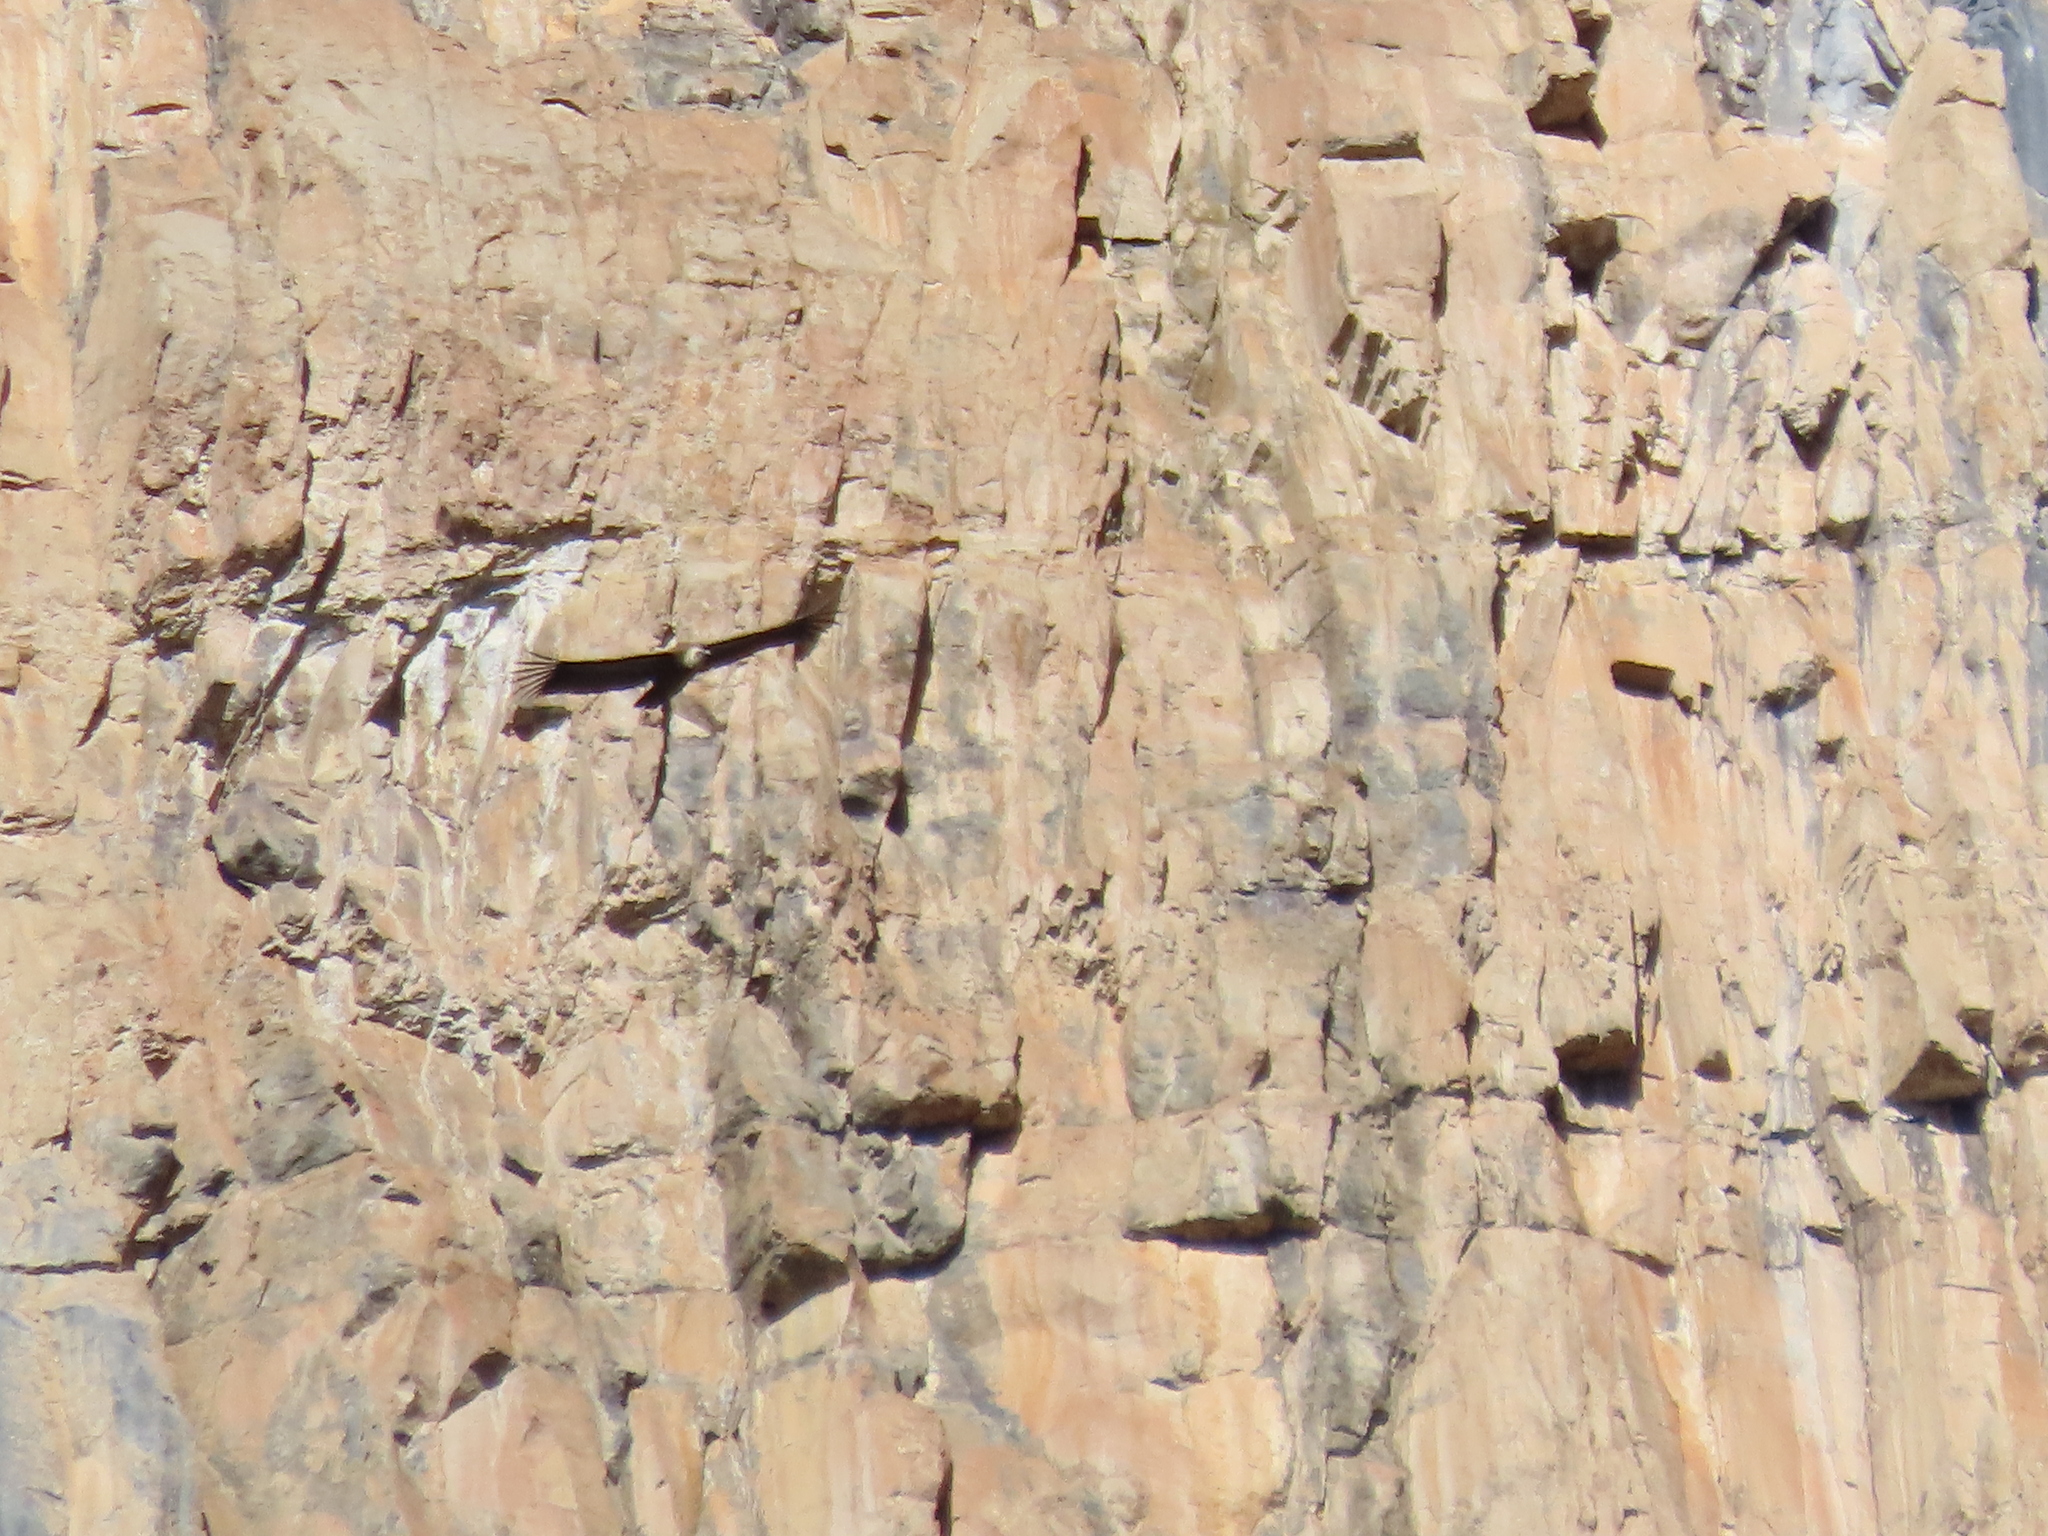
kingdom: Animalia
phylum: Chordata
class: Aves
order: Accipitriformes
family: Accipitridae
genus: Gyps
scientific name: Gyps fulvus
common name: Griffon vulture
